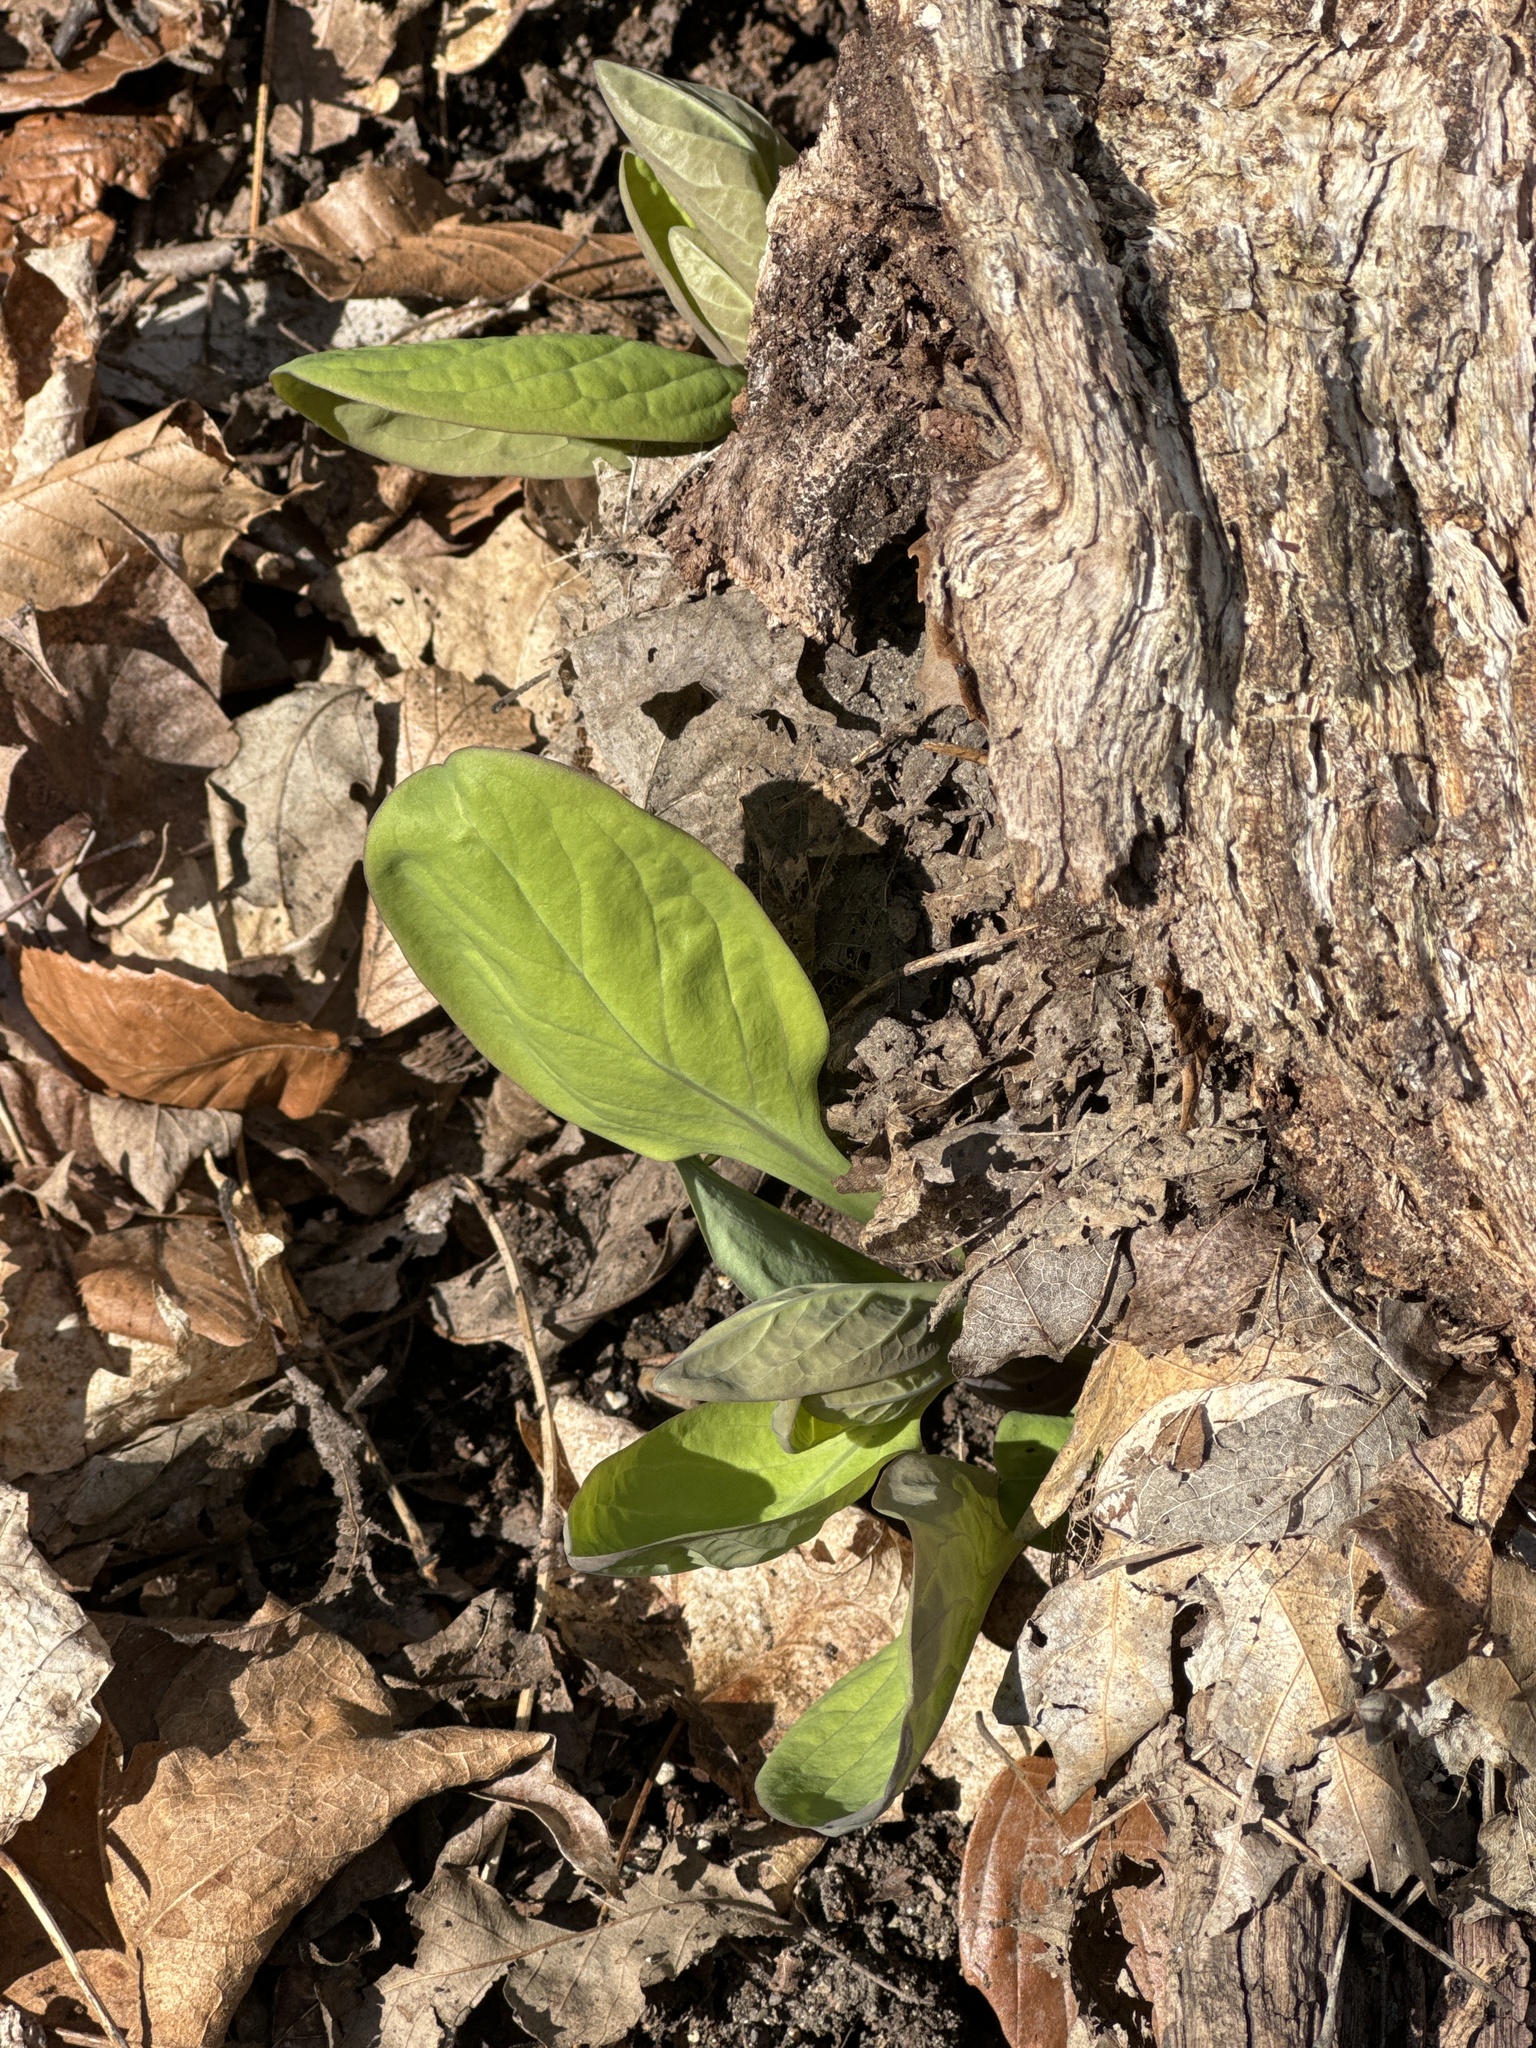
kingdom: Plantae
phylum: Tracheophyta
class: Magnoliopsida
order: Boraginales
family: Boraginaceae
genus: Mertensia
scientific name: Mertensia virginica
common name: Virginia bluebells
